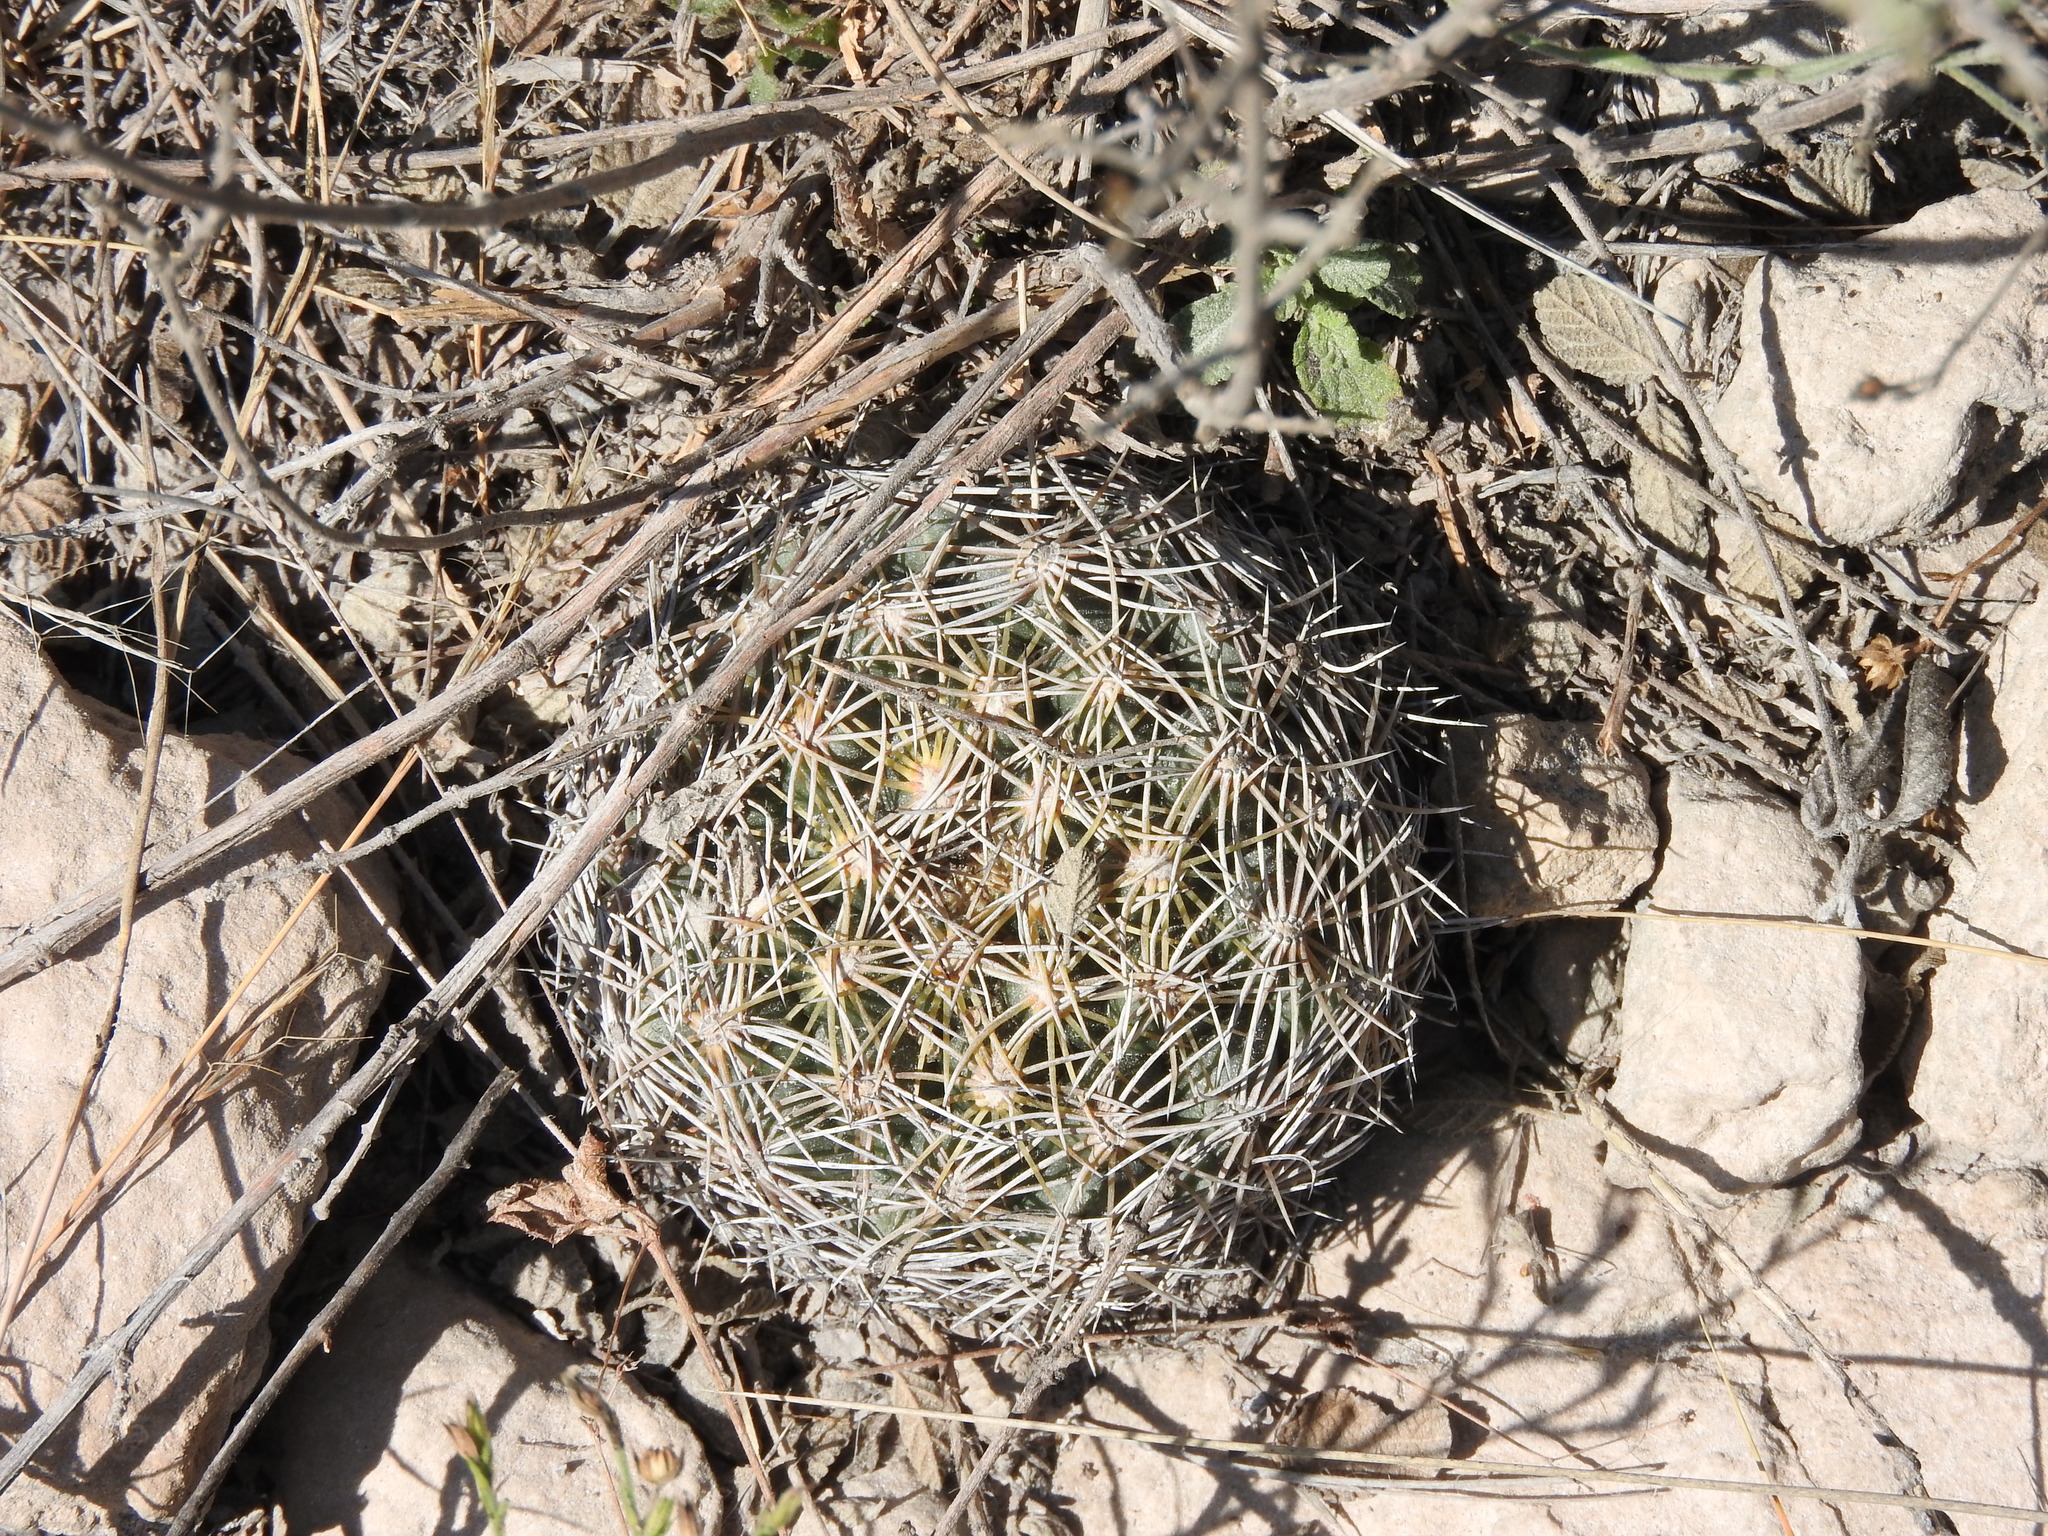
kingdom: Plantae
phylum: Tracheophyta
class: Magnoliopsida
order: Caryophyllales
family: Cactaceae
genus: Coryphantha
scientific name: Coryphantha cornifera
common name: Rhinoceros cactus
